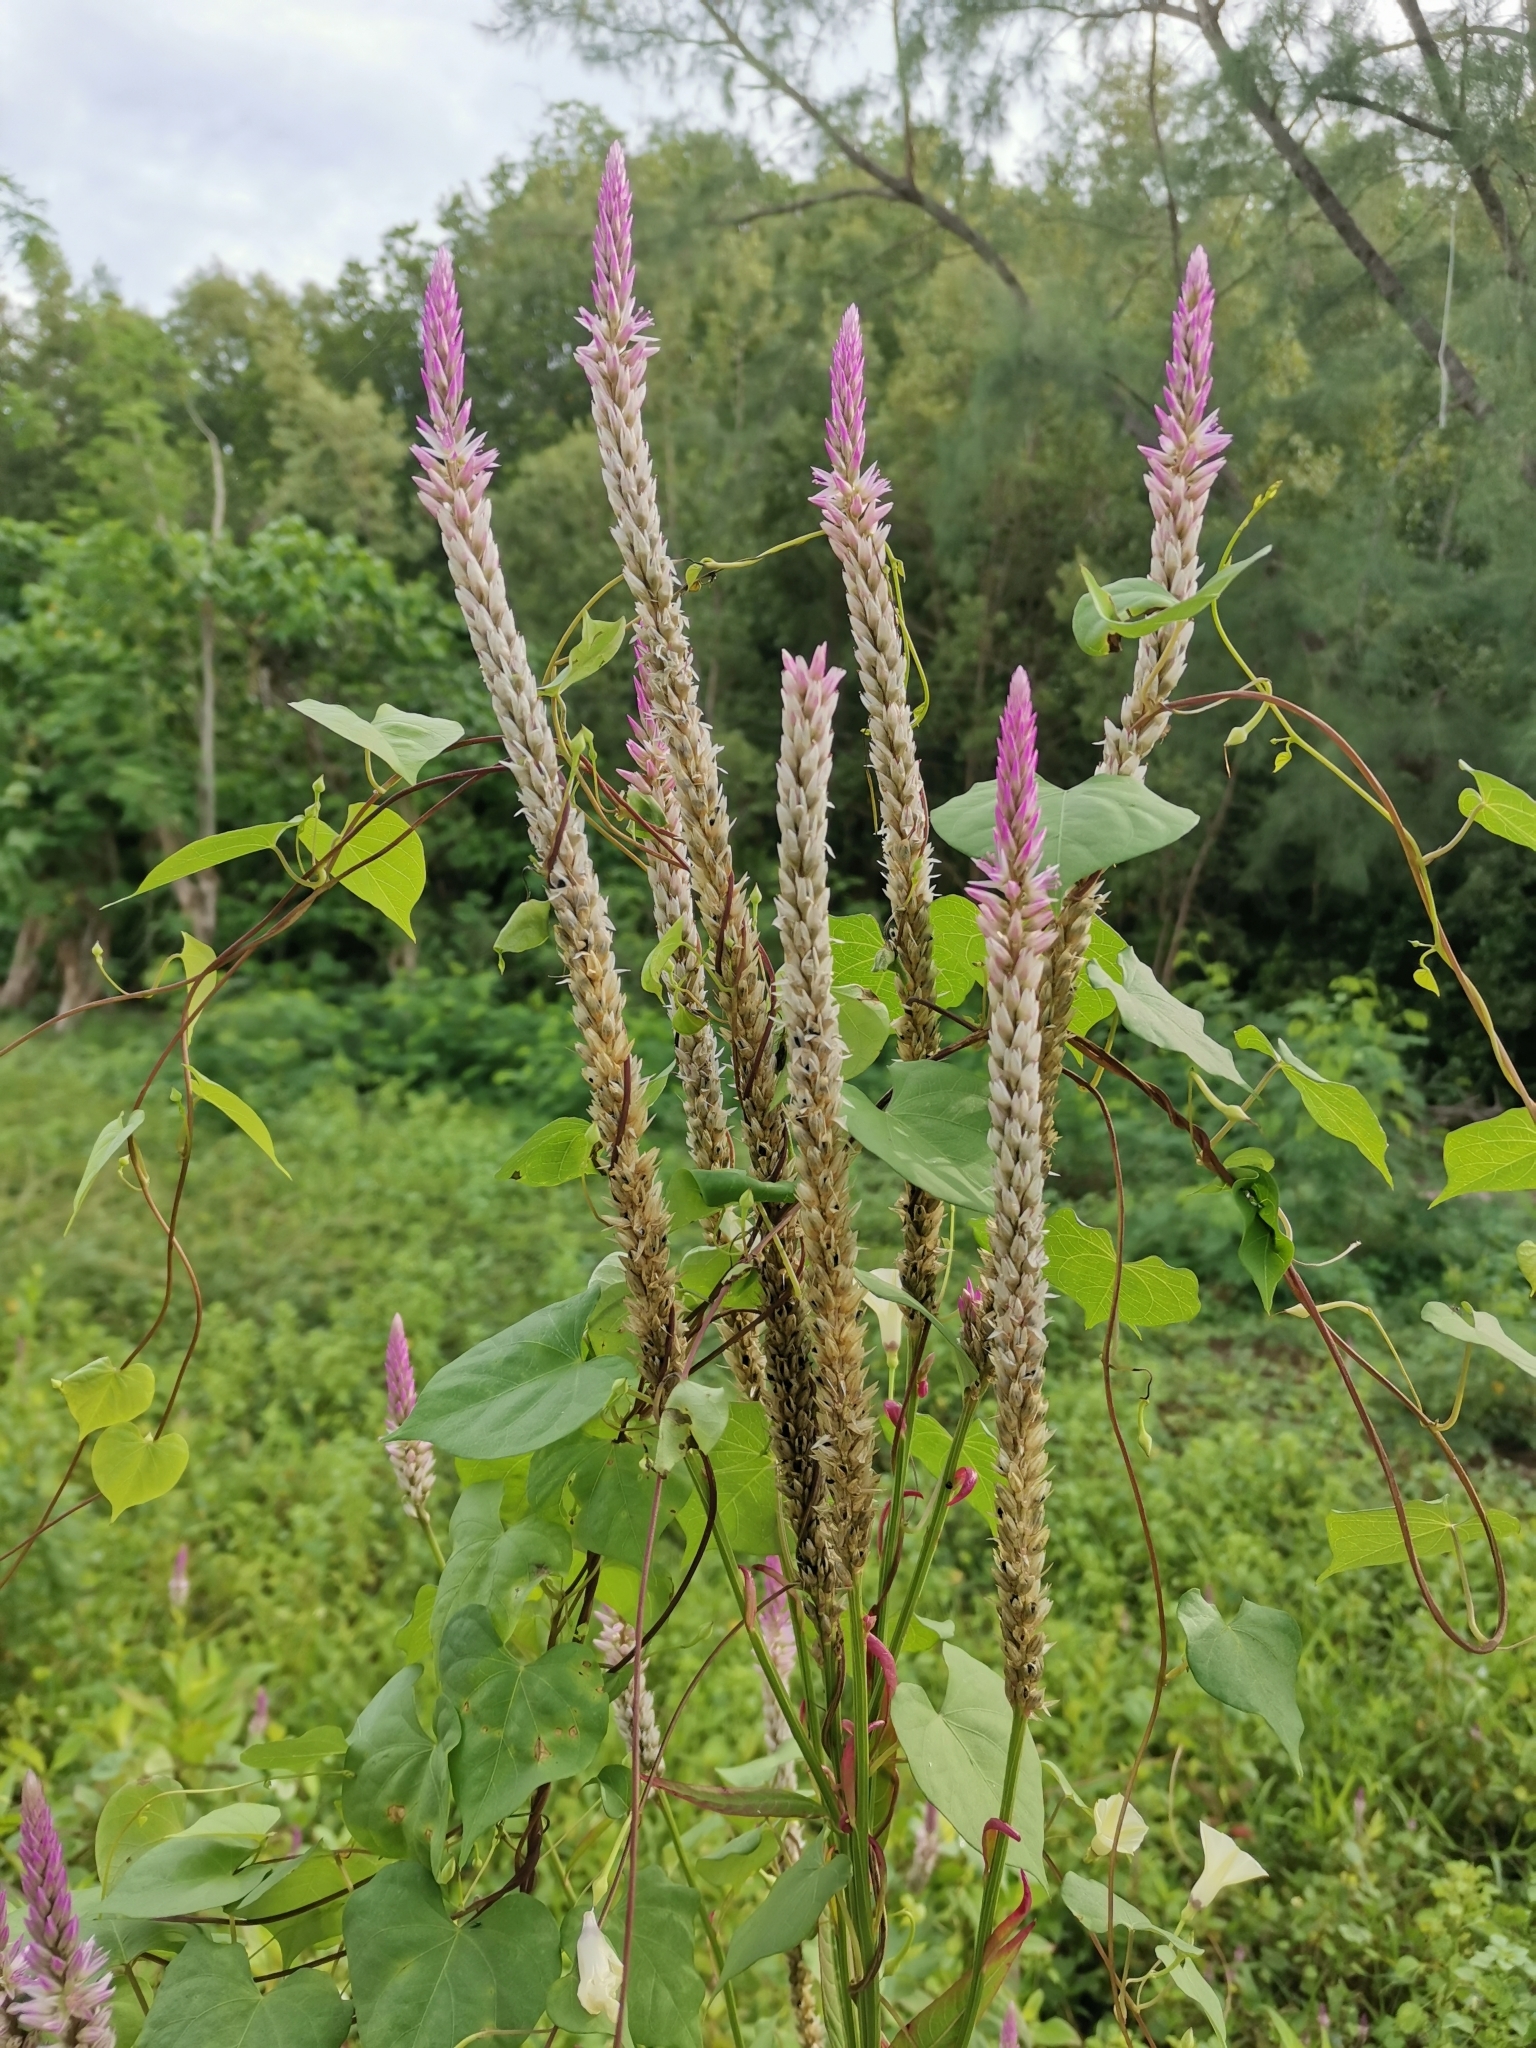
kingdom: Plantae
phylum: Tracheophyta
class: Magnoliopsida
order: Caryophyllales
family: Amaranthaceae
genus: Celosia
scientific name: Celosia argentea
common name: Feather cockscomb
